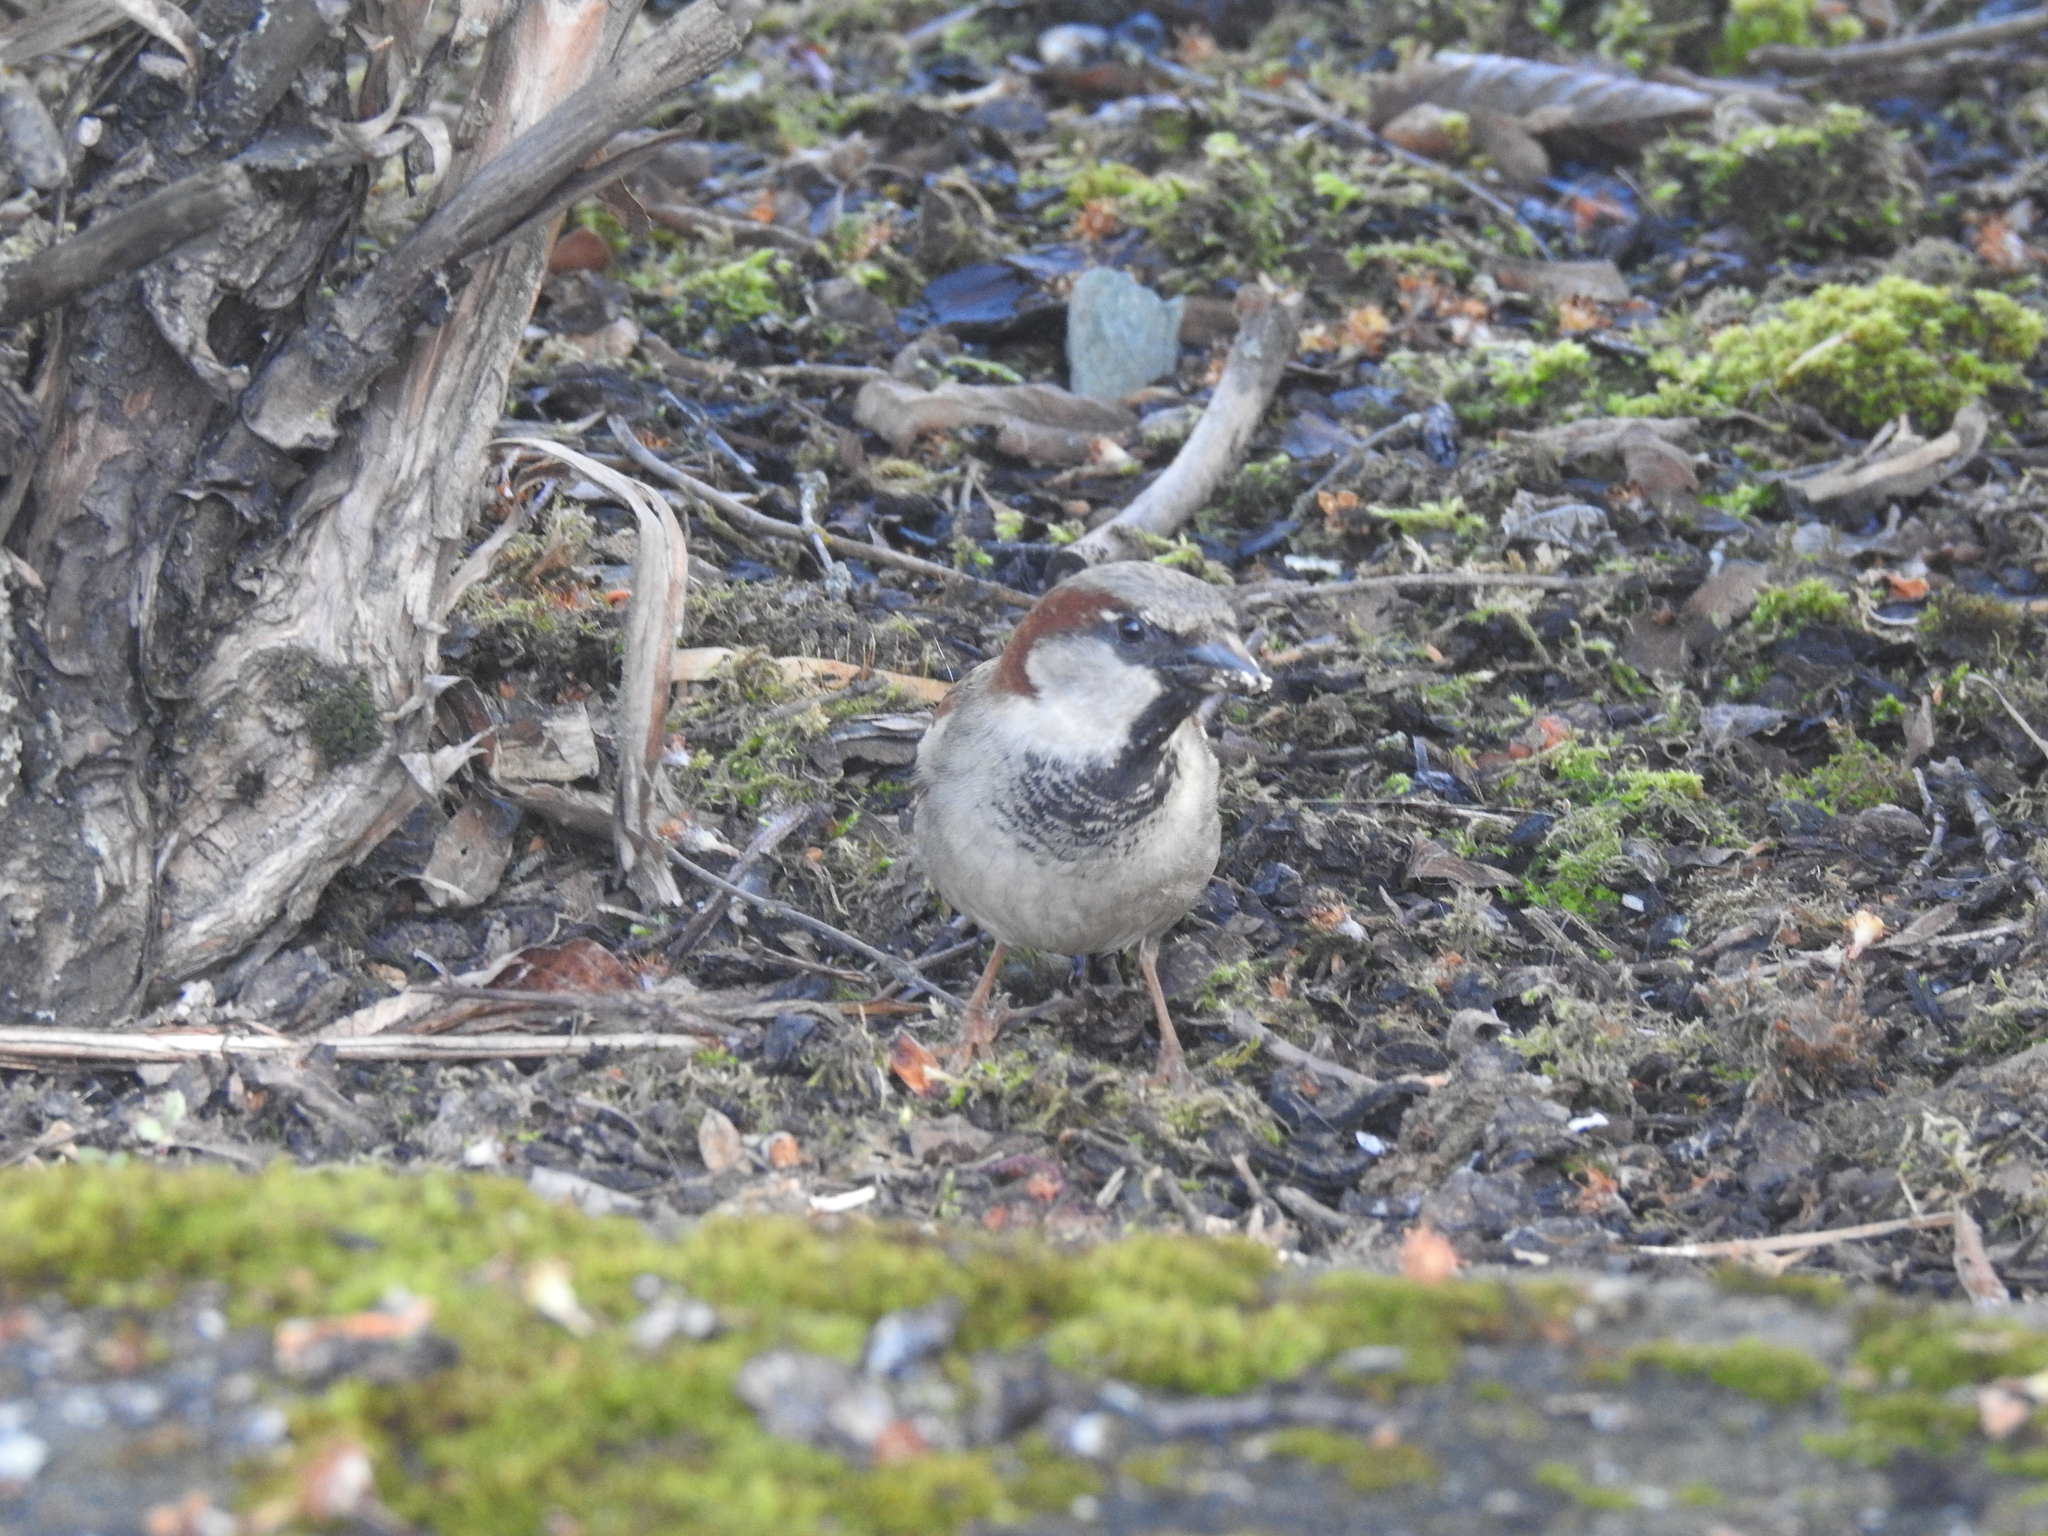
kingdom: Animalia
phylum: Chordata
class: Aves
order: Passeriformes
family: Passeridae
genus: Passer
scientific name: Passer domesticus
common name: House sparrow
